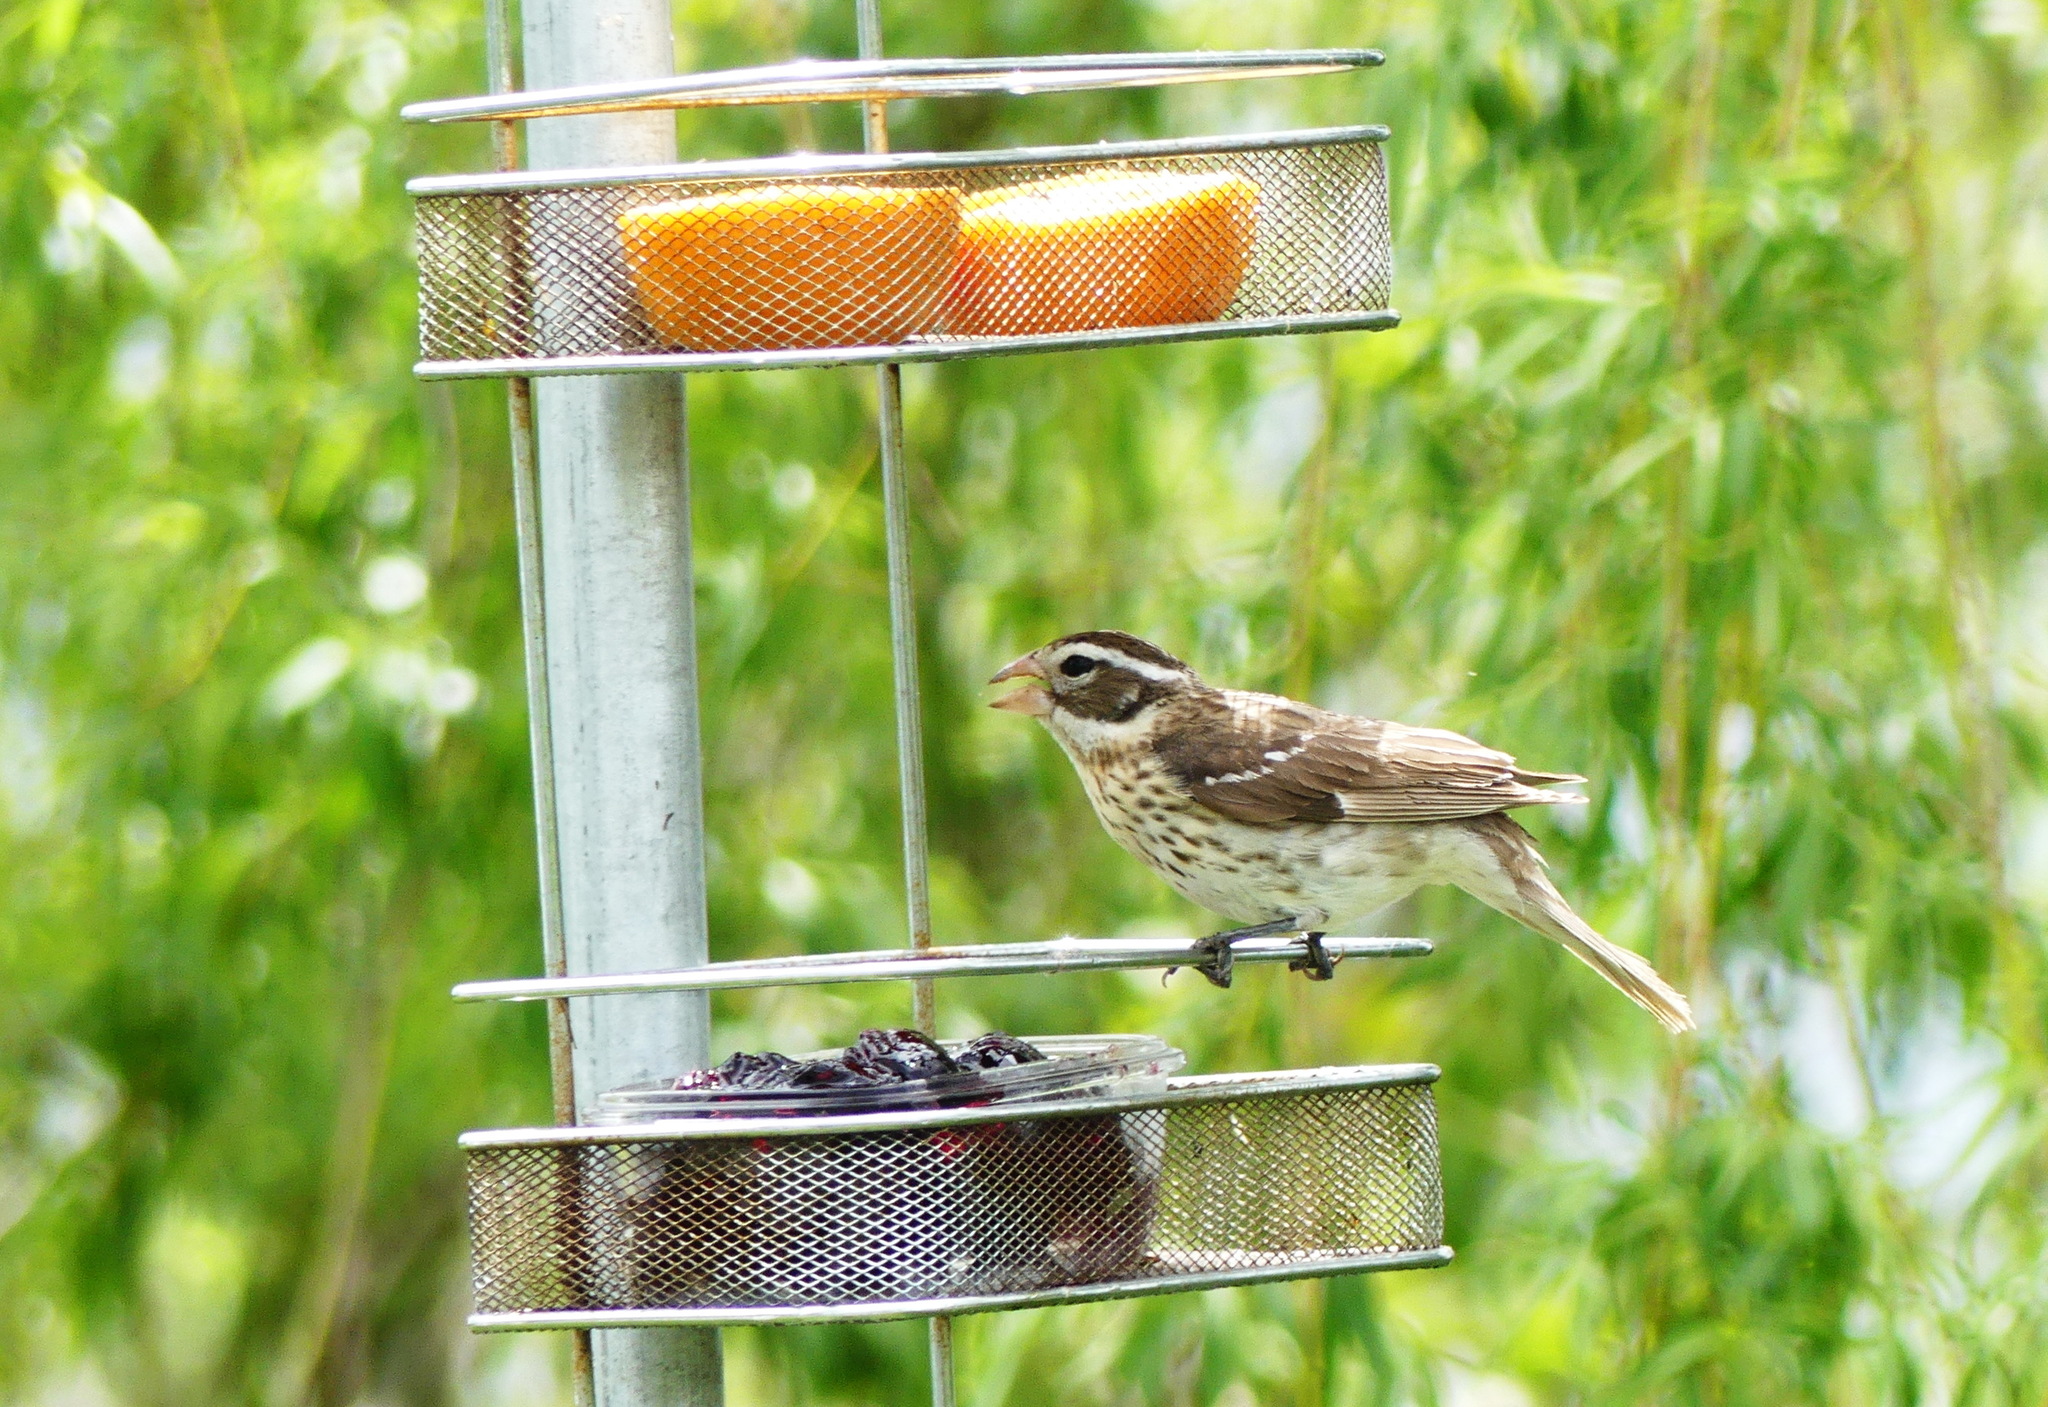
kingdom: Animalia
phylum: Chordata
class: Aves
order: Passeriformes
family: Cardinalidae
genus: Pheucticus
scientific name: Pheucticus ludovicianus
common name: Rose-breasted grosbeak
